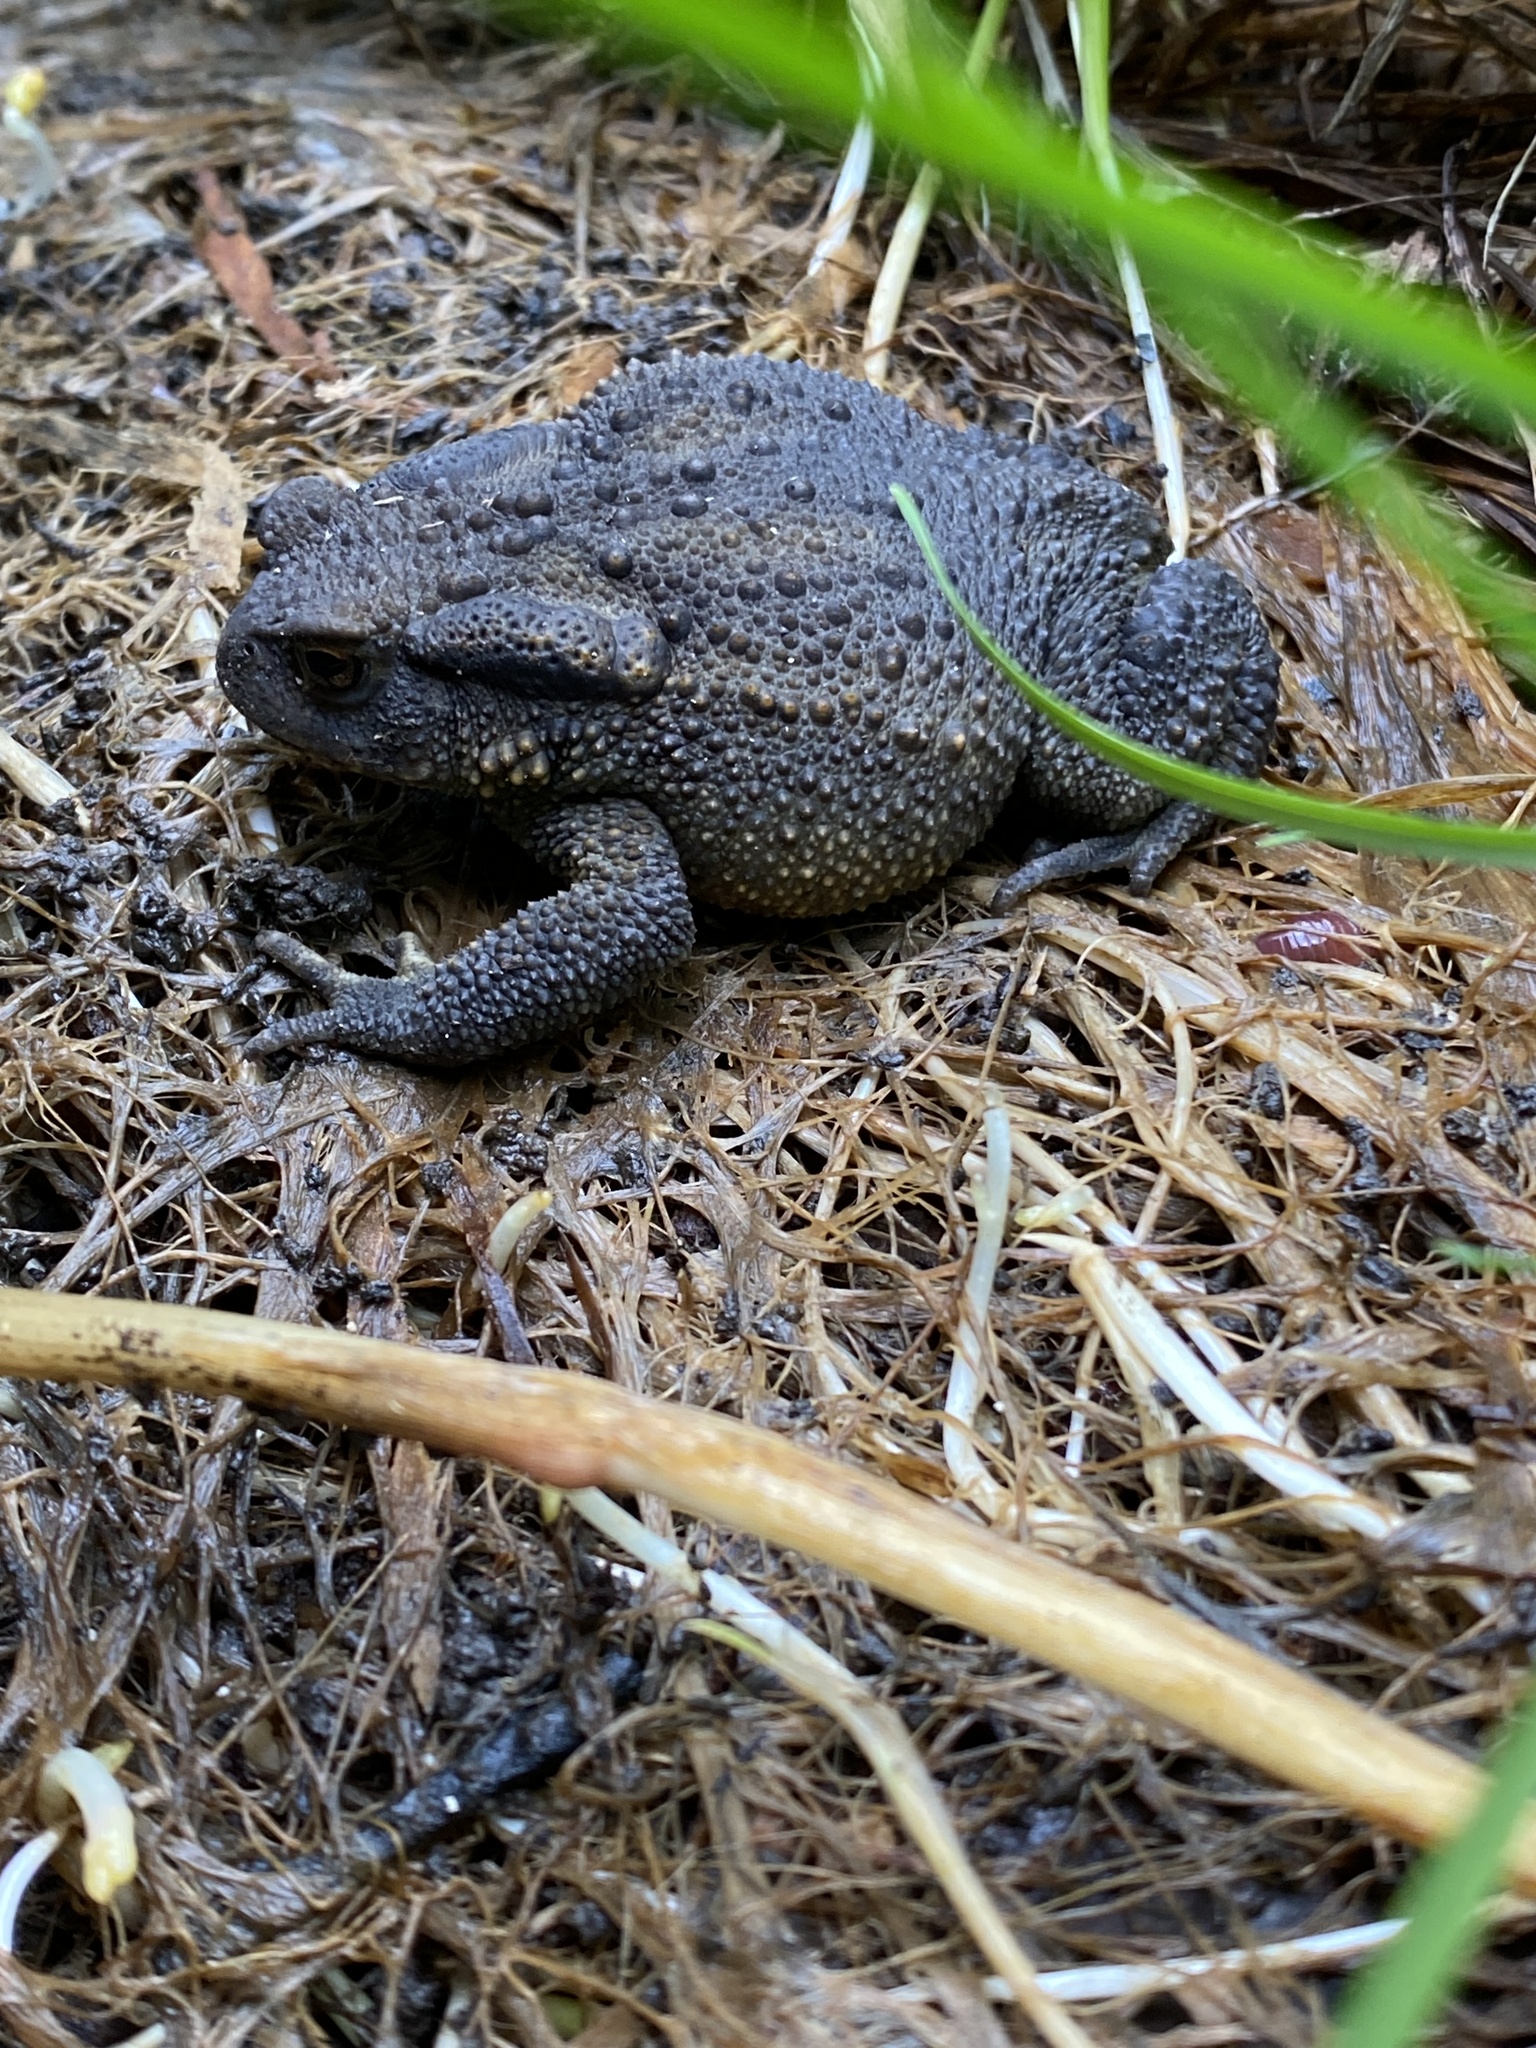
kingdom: Animalia
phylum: Chordata
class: Amphibia
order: Anura
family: Bufonidae
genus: Bufo
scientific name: Bufo bufo
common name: Common toad
